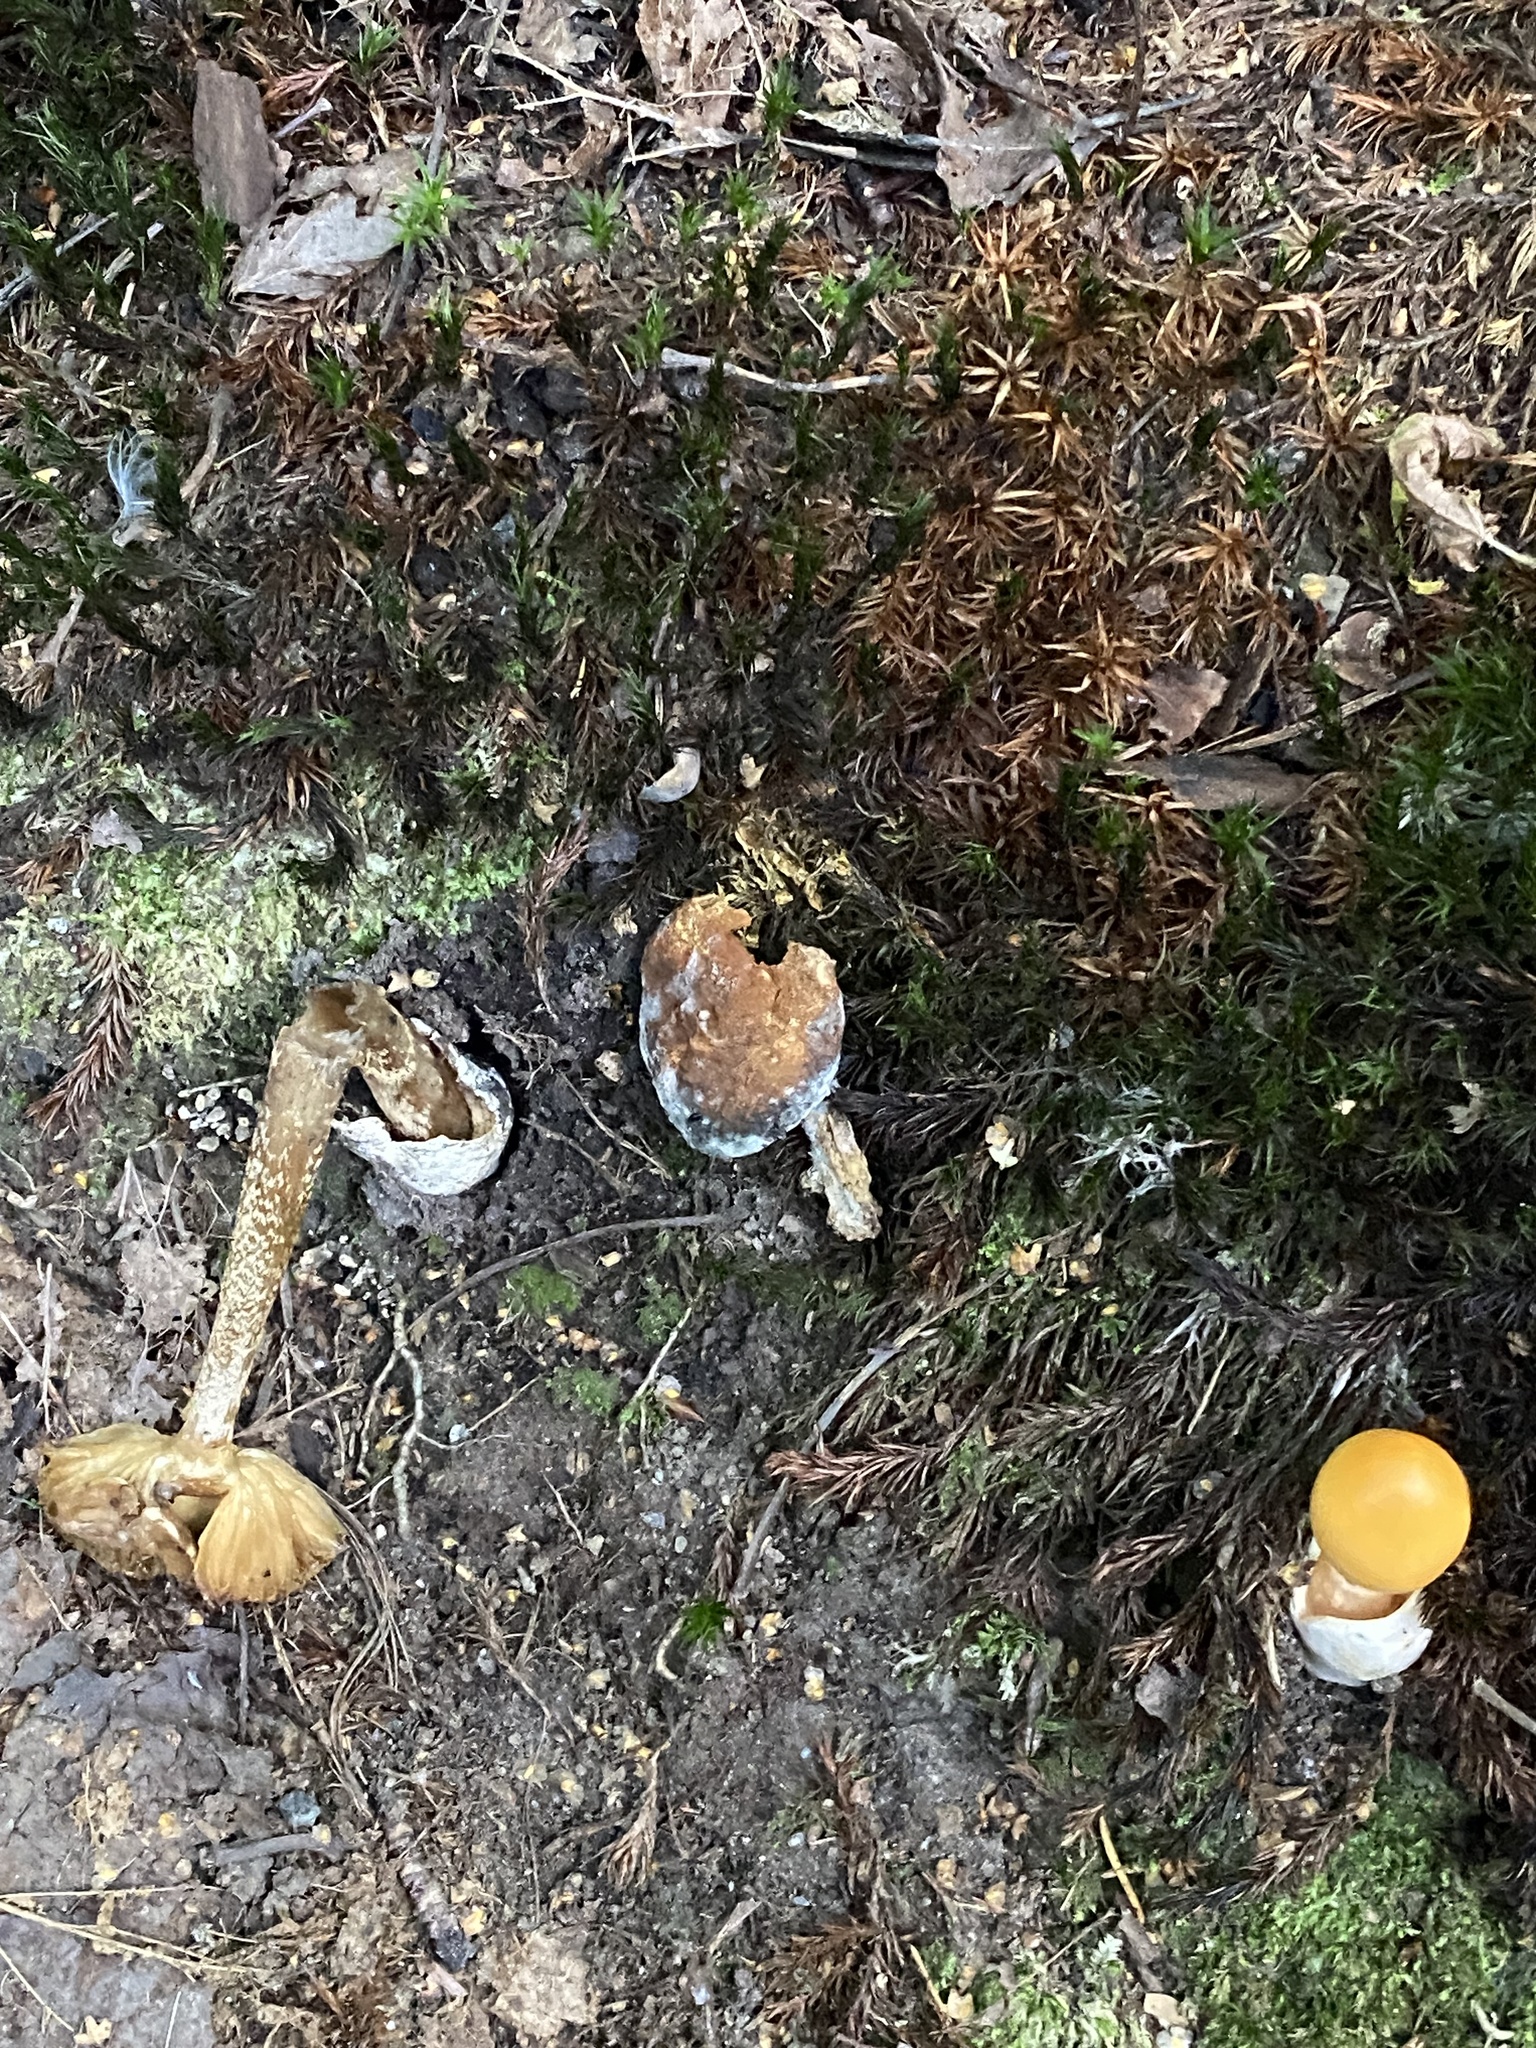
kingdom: Fungi
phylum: Basidiomycota
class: Agaricomycetes
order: Agaricales
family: Amanitaceae
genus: Amanita
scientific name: Amanita crocea
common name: Orange grisette
